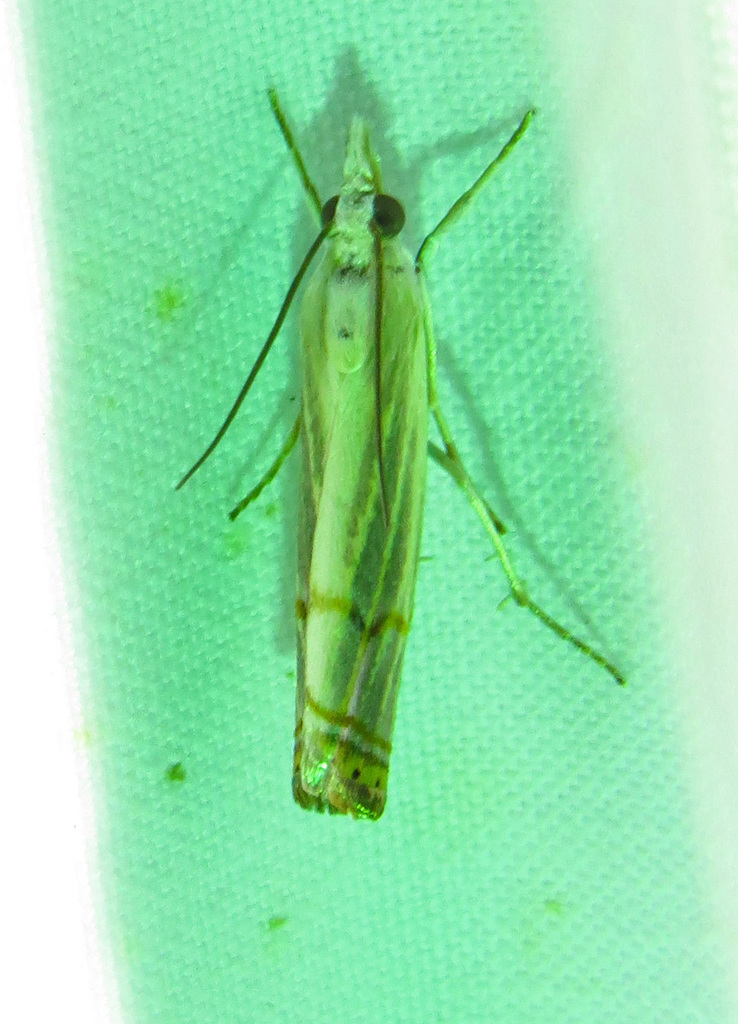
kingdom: Animalia
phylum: Arthropoda
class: Insecta
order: Lepidoptera
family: Crambidae
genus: Parapediasia
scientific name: Parapediasia decorellus
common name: Graceful grass-veneer
